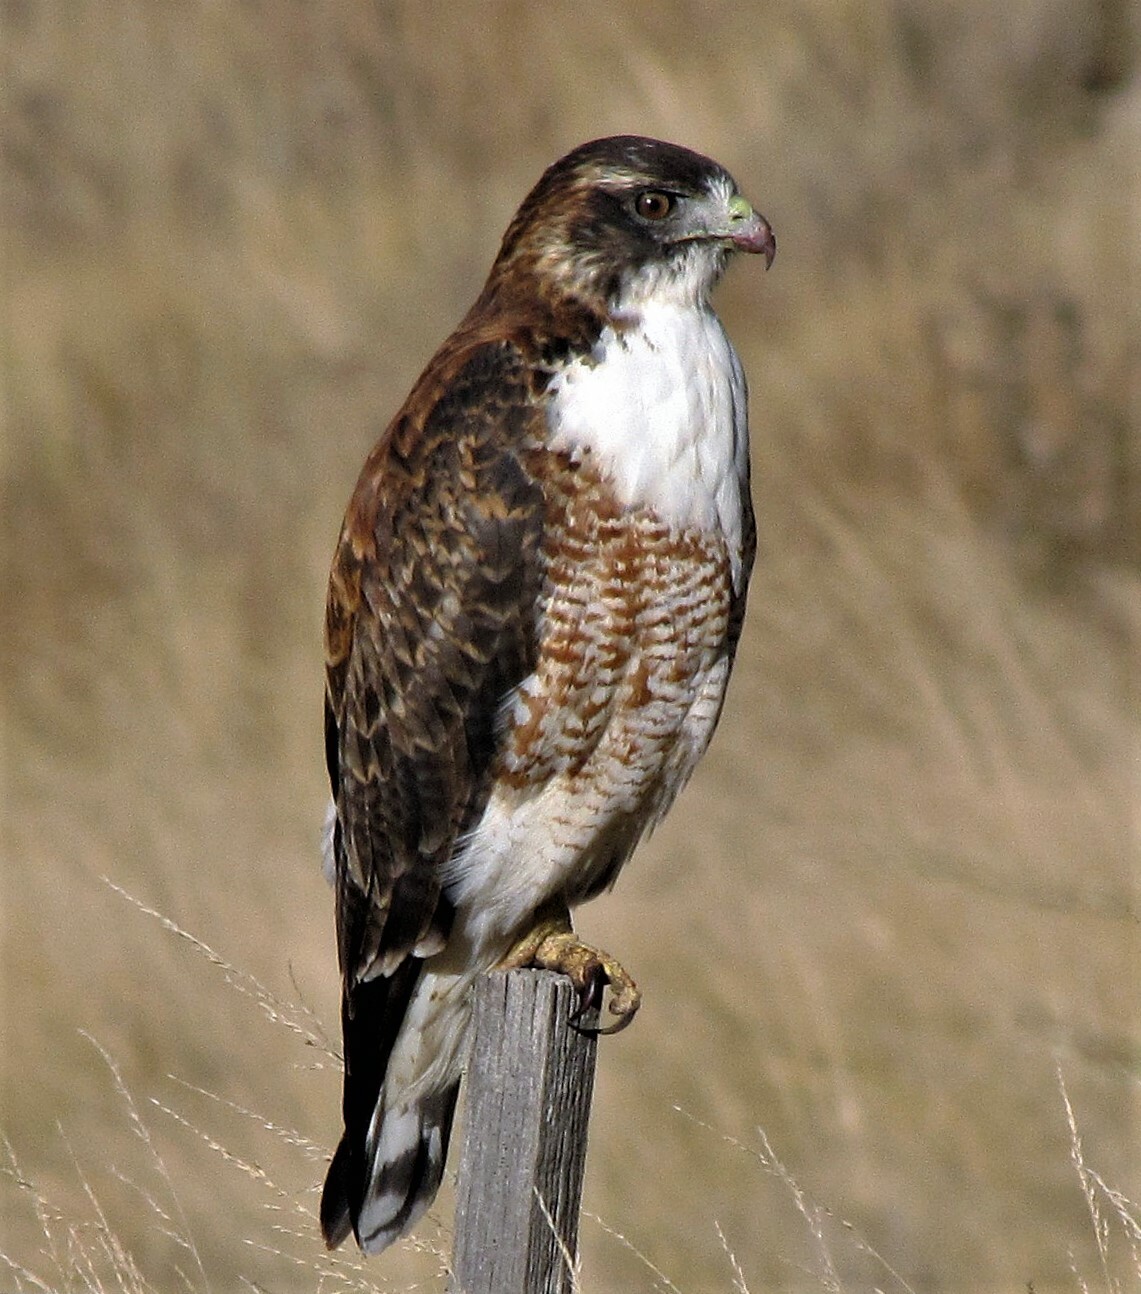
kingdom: Animalia
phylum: Chordata
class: Aves
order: Accipitriformes
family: Accipitridae
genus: Buteo
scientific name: Buteo polyosoma
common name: Variable hawk
